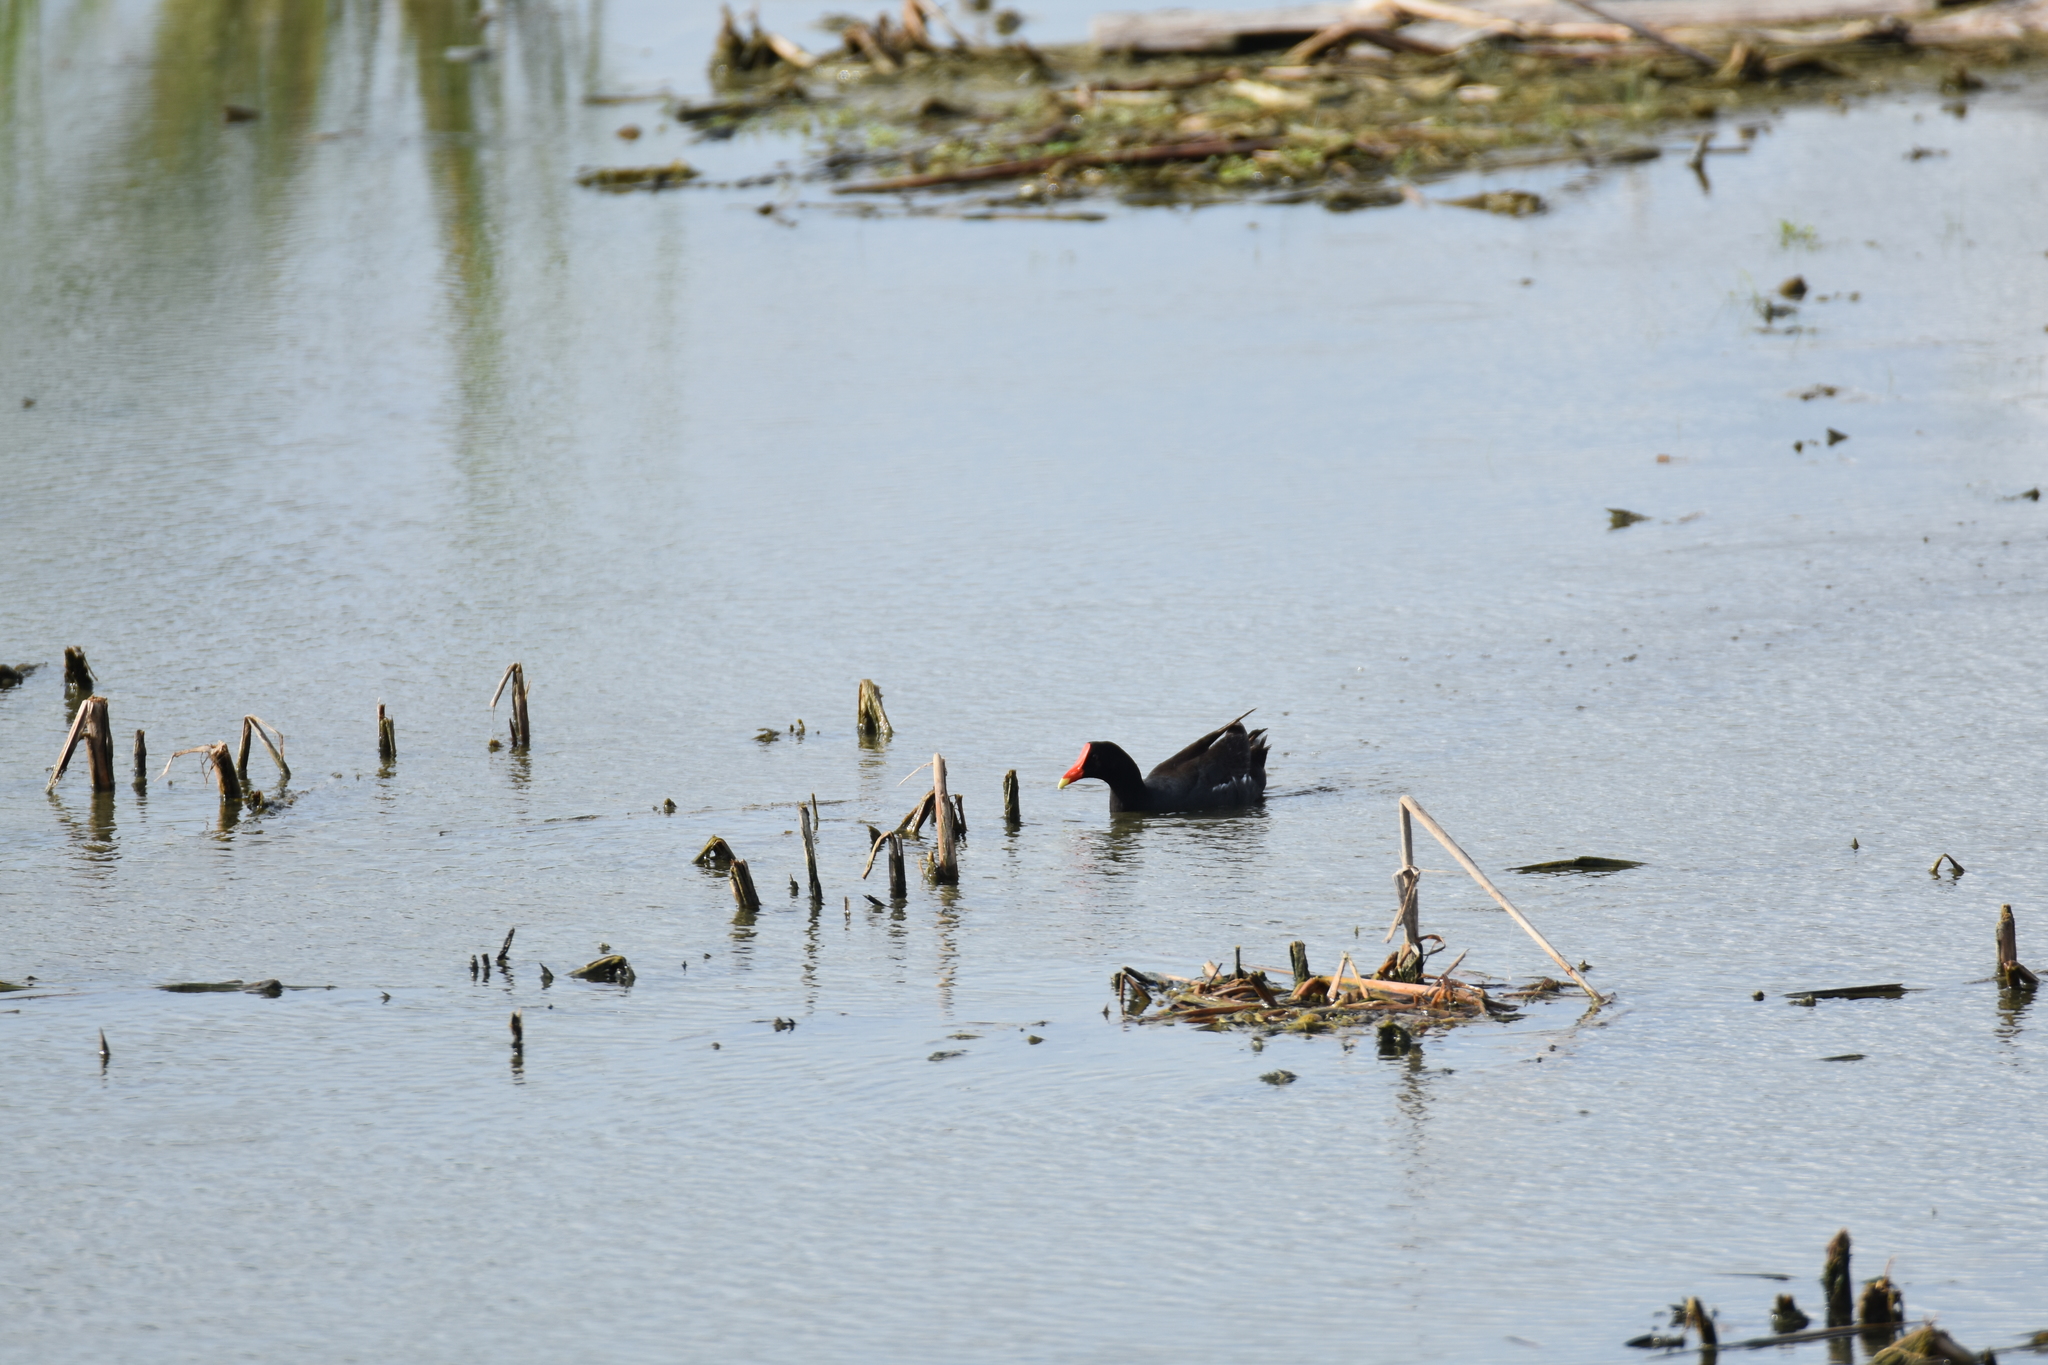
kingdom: Animalia
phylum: Chordata
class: Aves
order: Gruiformes
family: Rallidae
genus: Gallinula
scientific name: Gallinula chloropus
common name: Common moorhen
